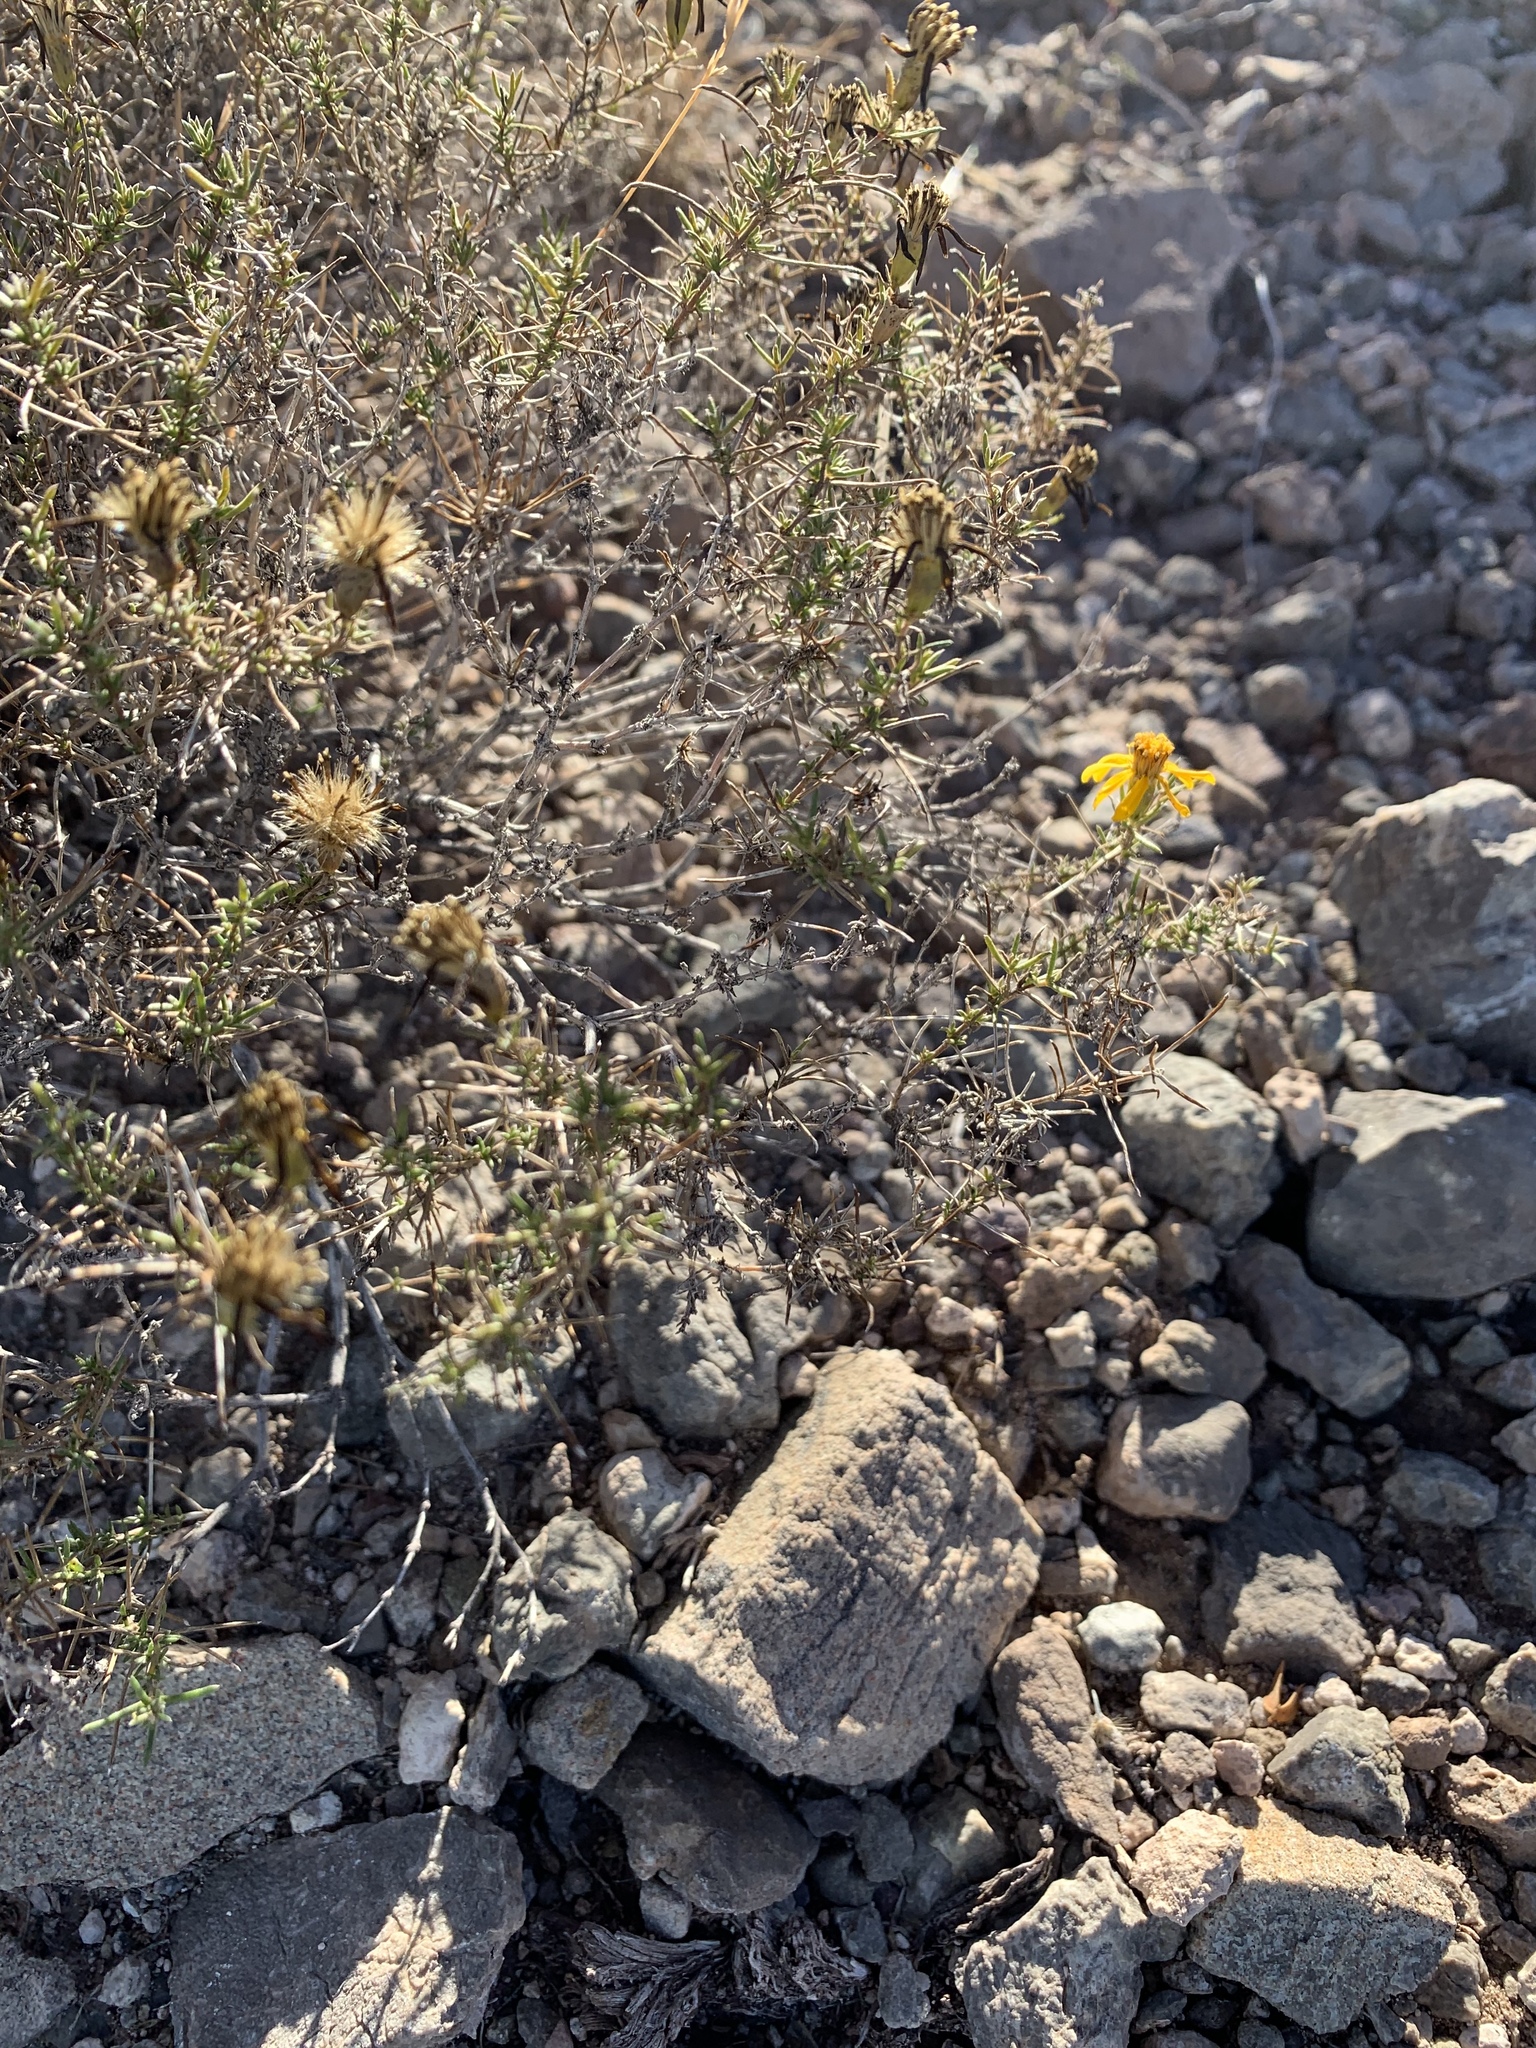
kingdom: Plantae
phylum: Tracheophyta
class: Magnoliopsida
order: Asterales
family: Asteraceae
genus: Thymophylla
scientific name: Thymophylla acerosa
